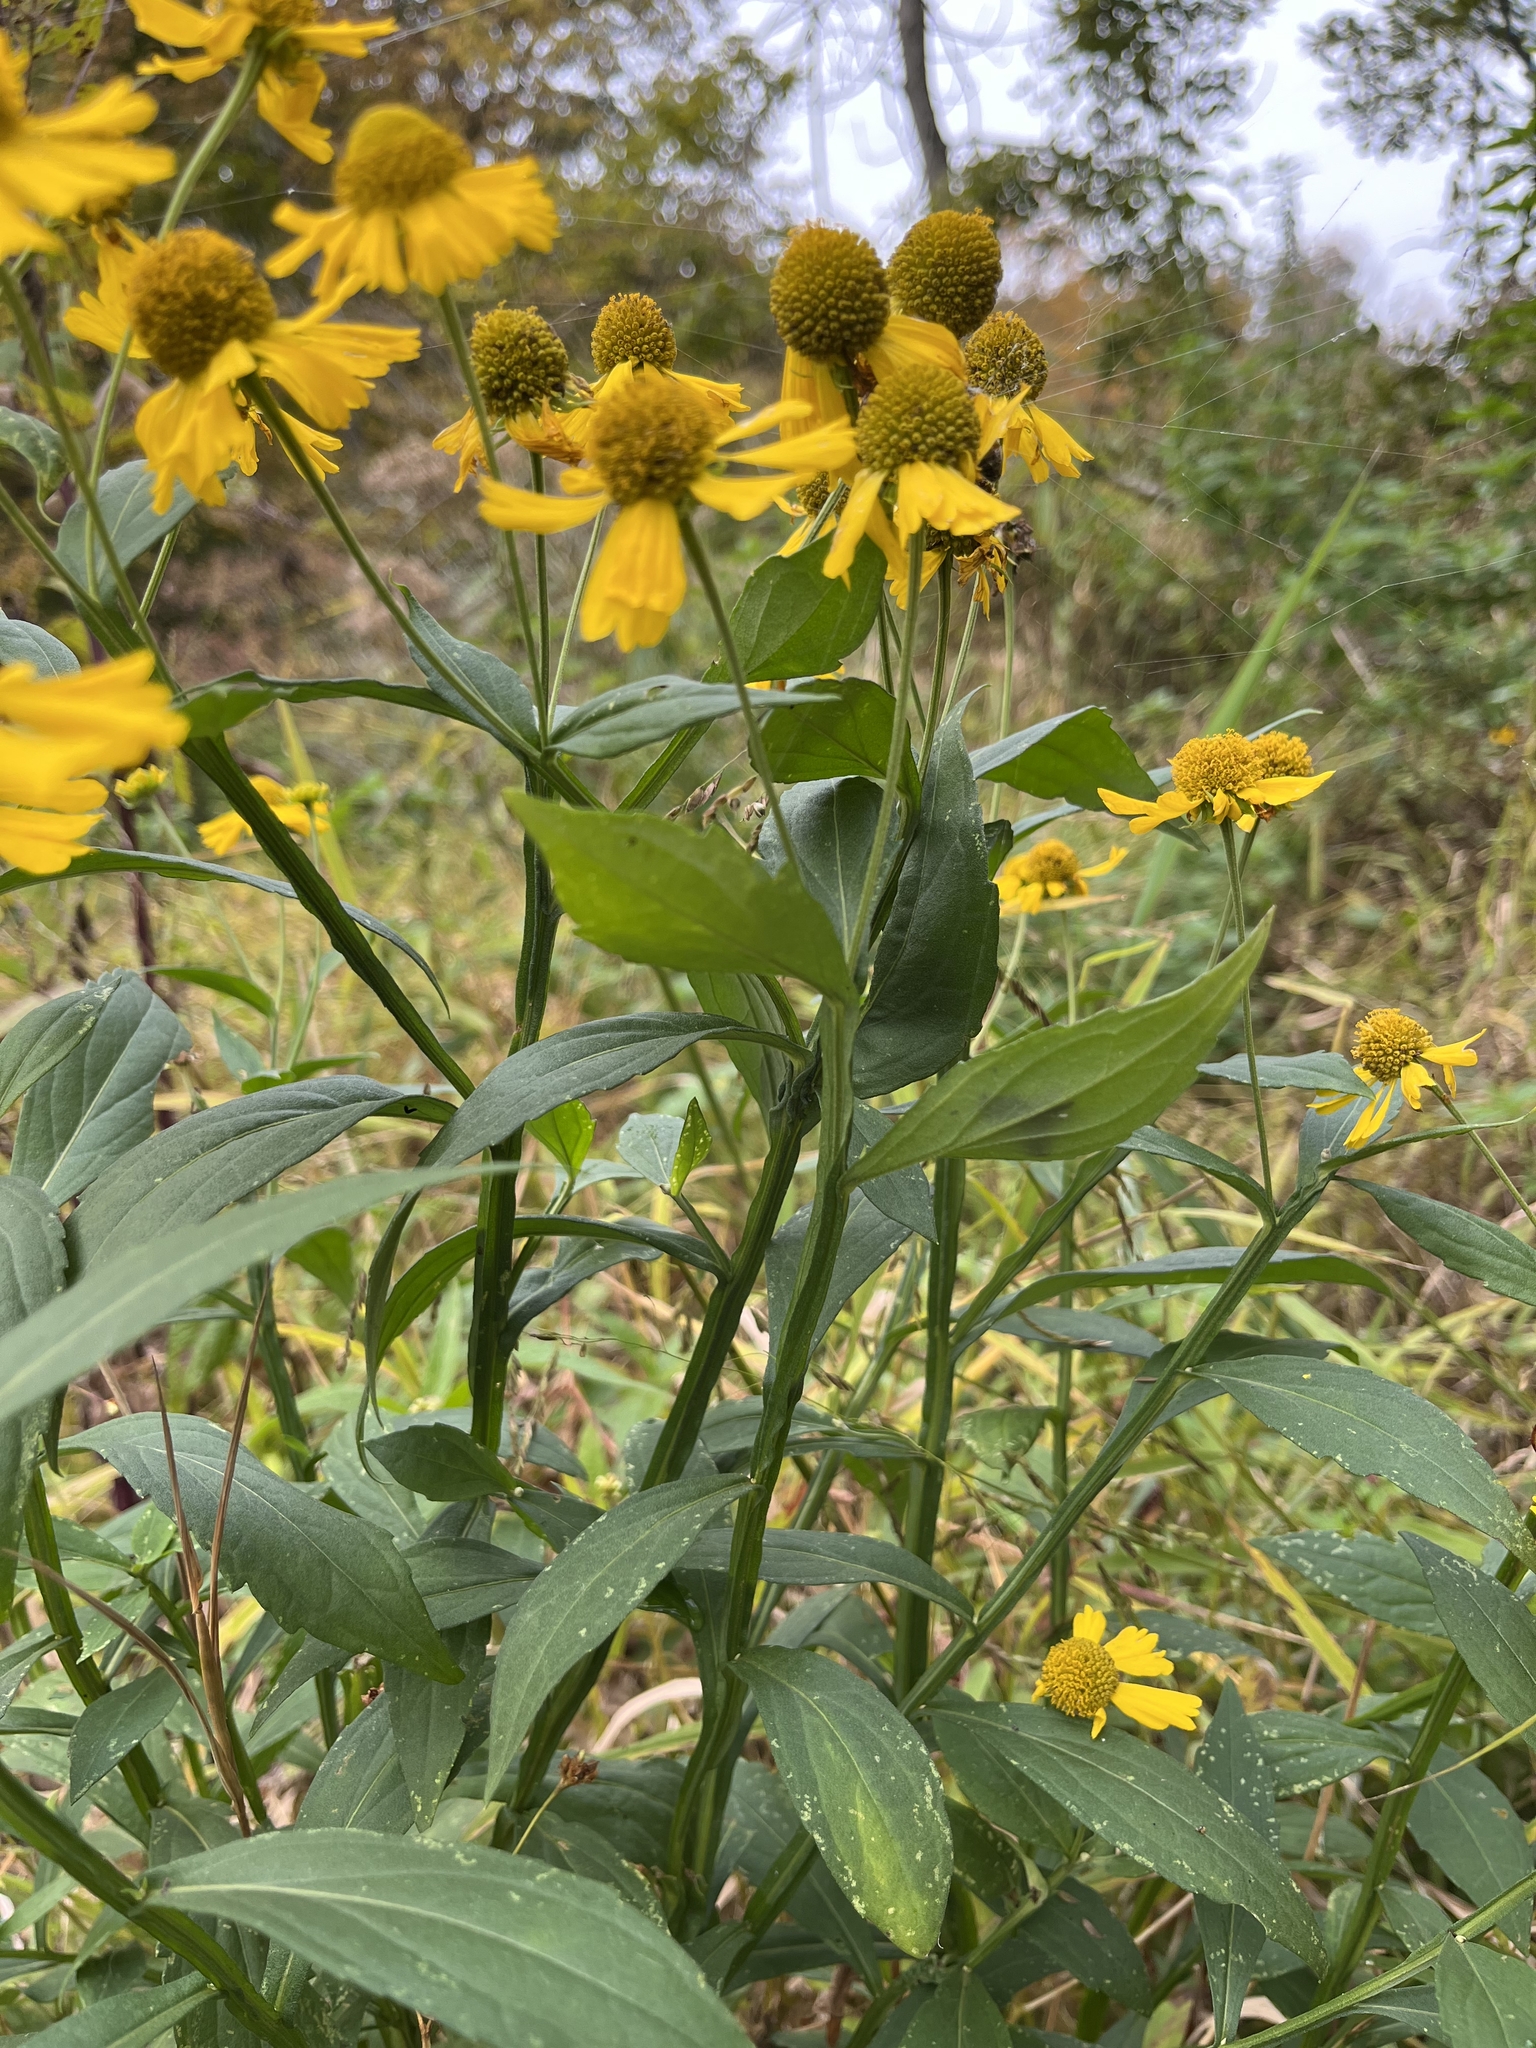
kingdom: Plantae
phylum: Tracheophyta
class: Magnoliopsida
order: Asterales
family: Asteraceae
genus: Helenium
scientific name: Helenium autumnale
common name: Sneezeweed
